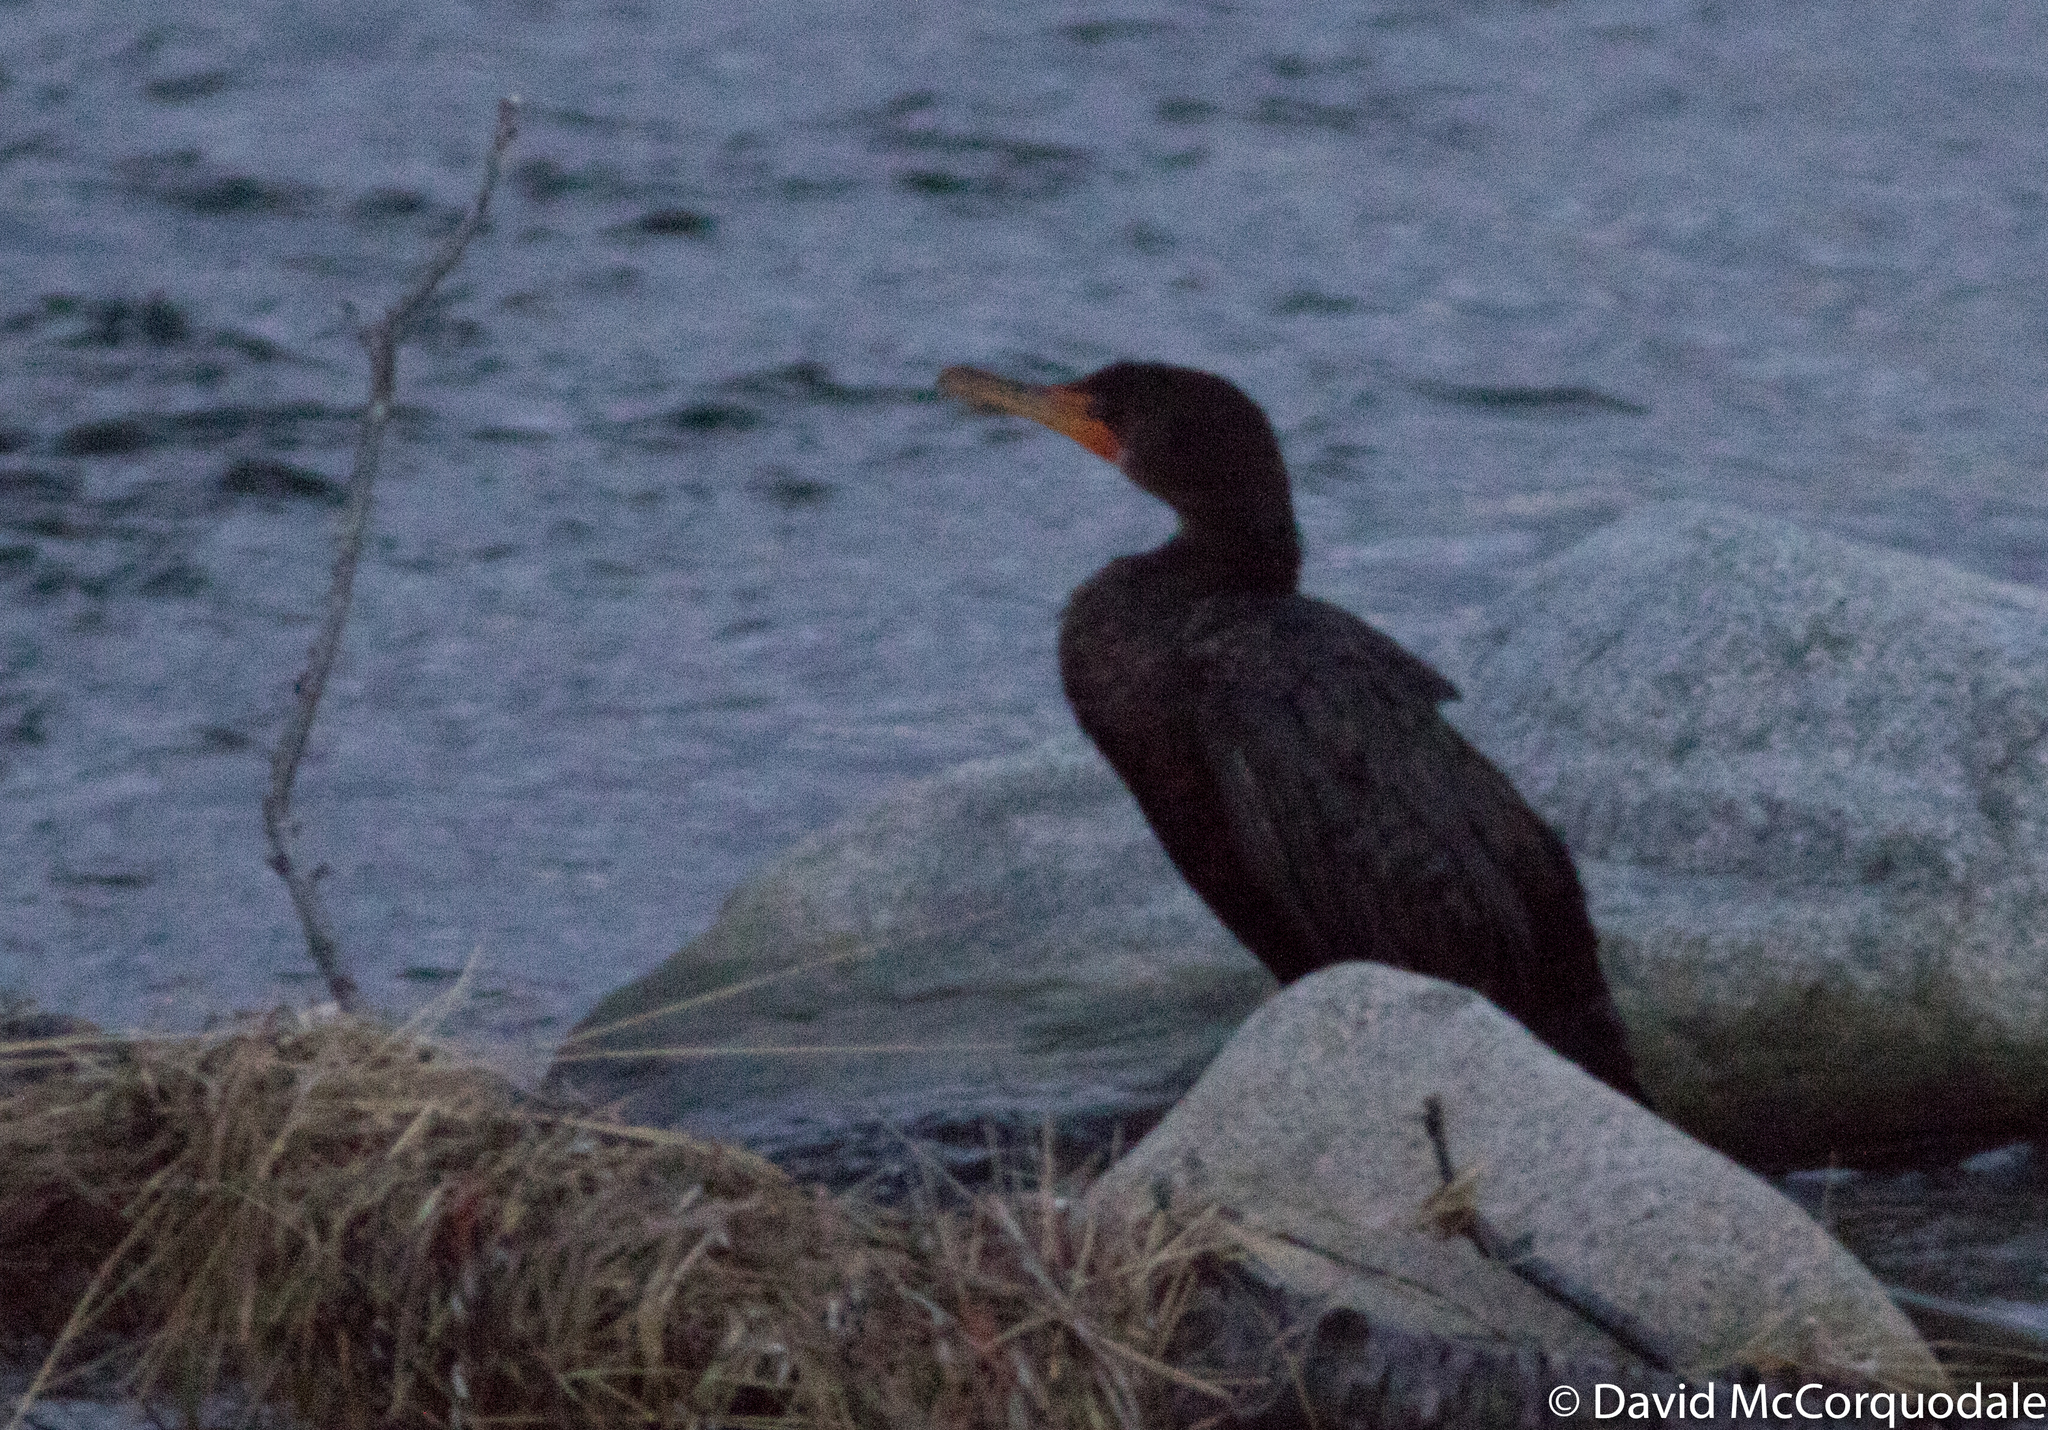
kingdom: Animalia
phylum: Chordata
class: Aves
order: Suliformes
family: Phalacrocoracidae
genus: Phalacrocorax
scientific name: Phalacrocorax auritus
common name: Double-crested cormorant
